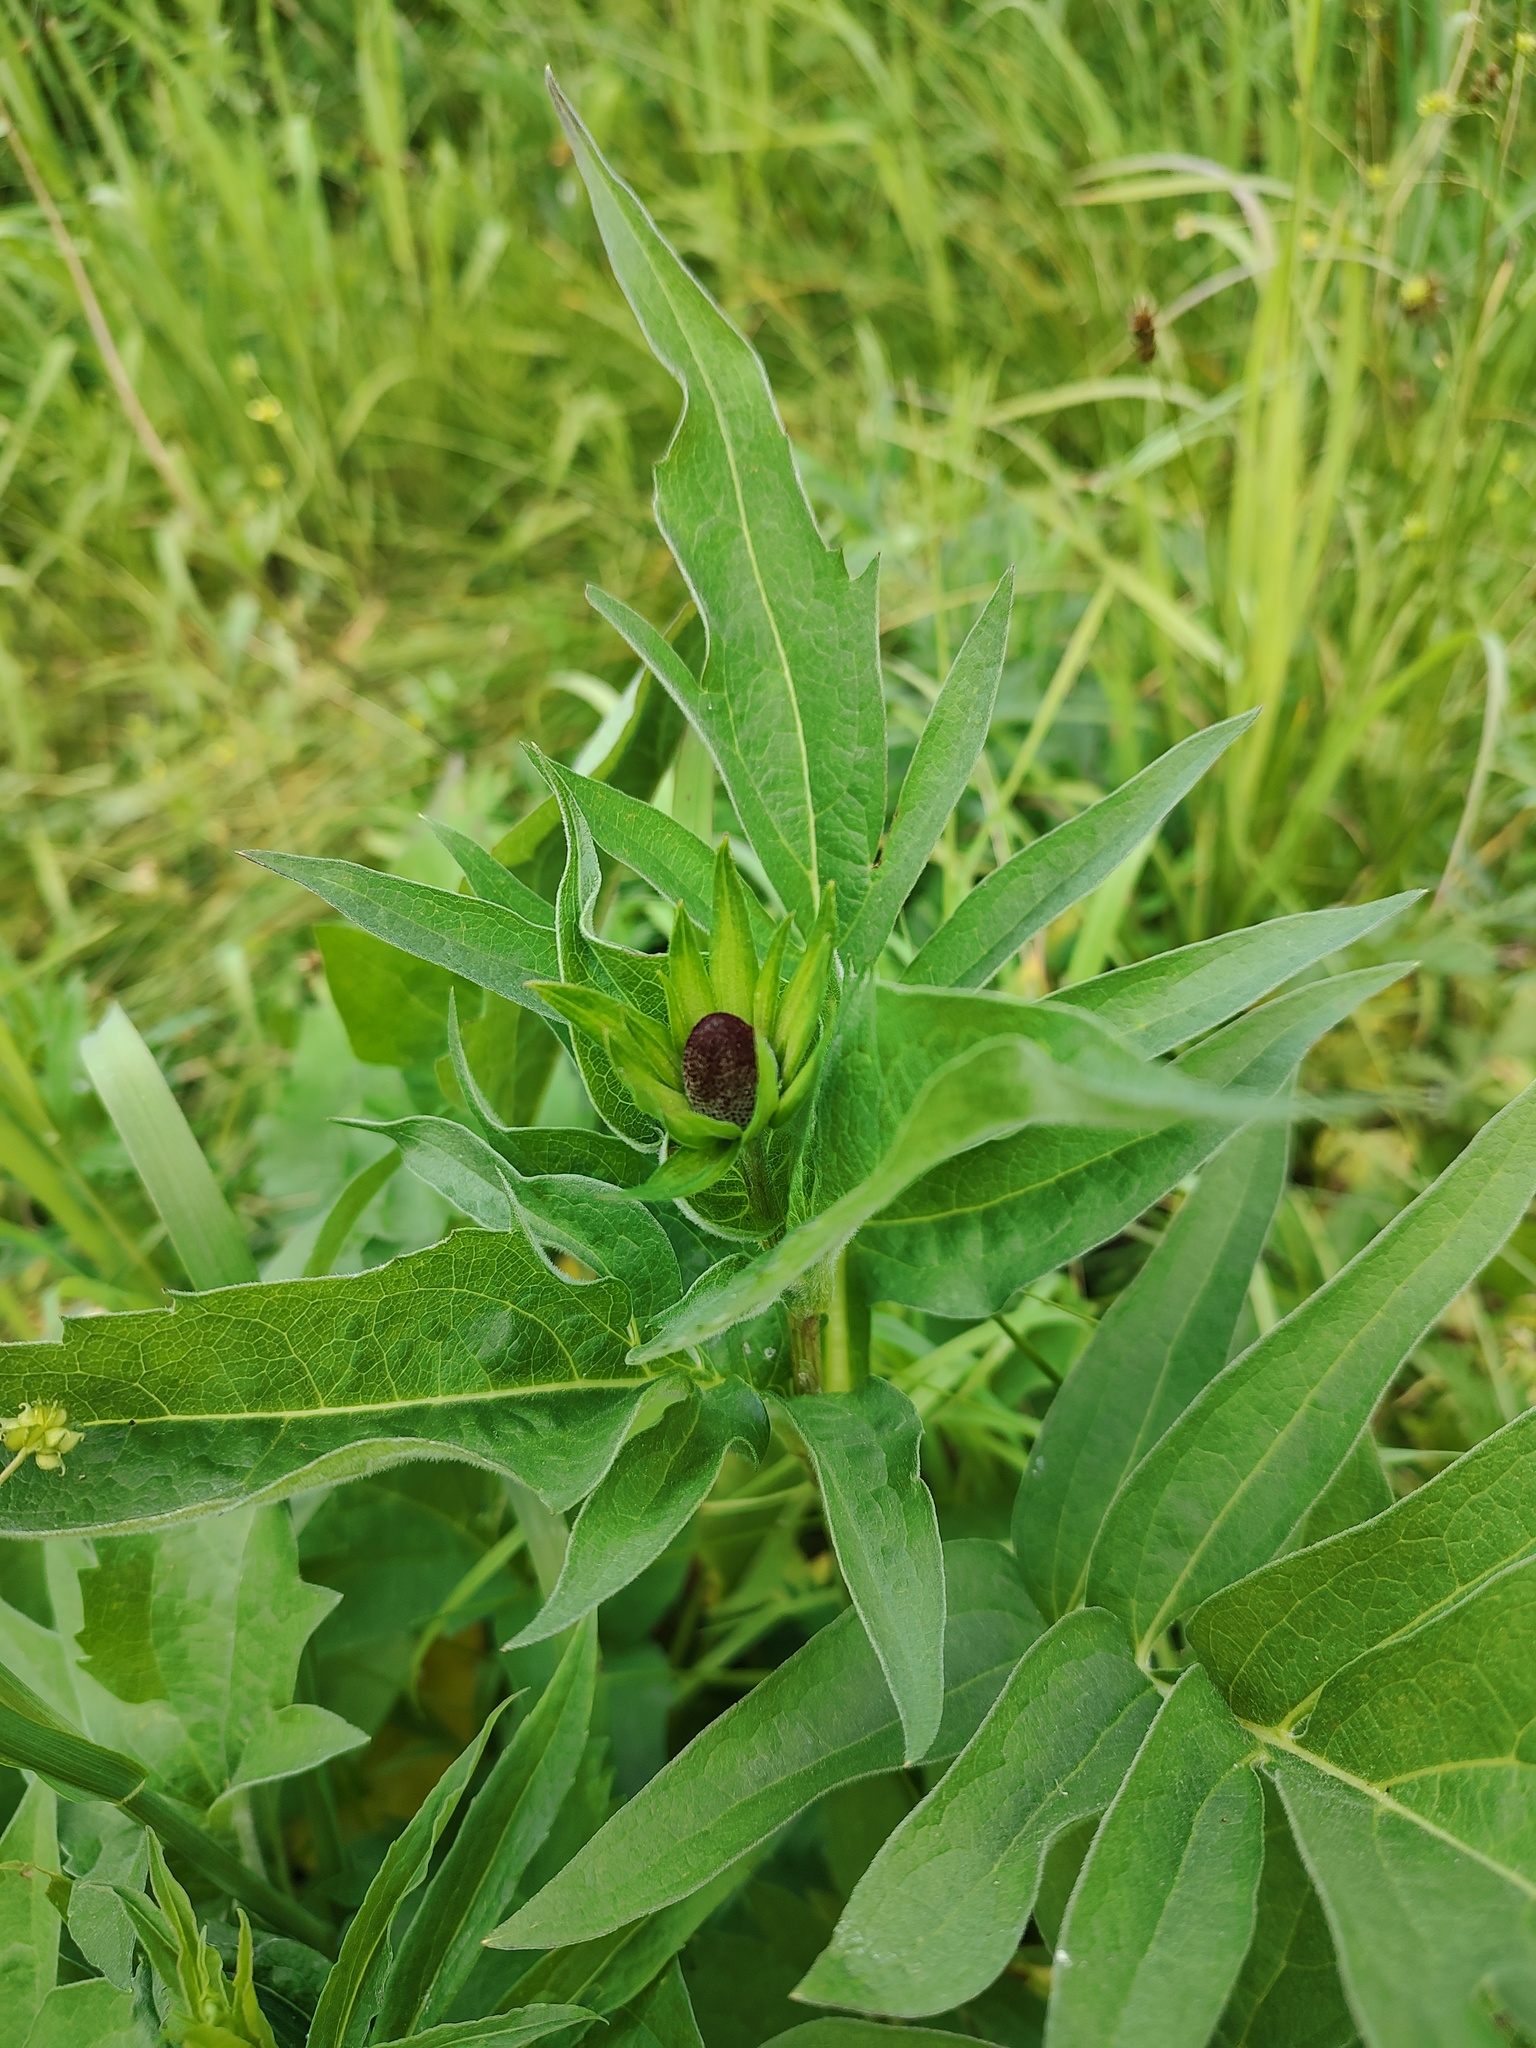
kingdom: Plantae
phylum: Tracheophyta
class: Magnoliopsida
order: Asterales
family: Asteraceae
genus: Rudbeckia
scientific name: Rudbeckia alpicola
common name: Washington coneflower
